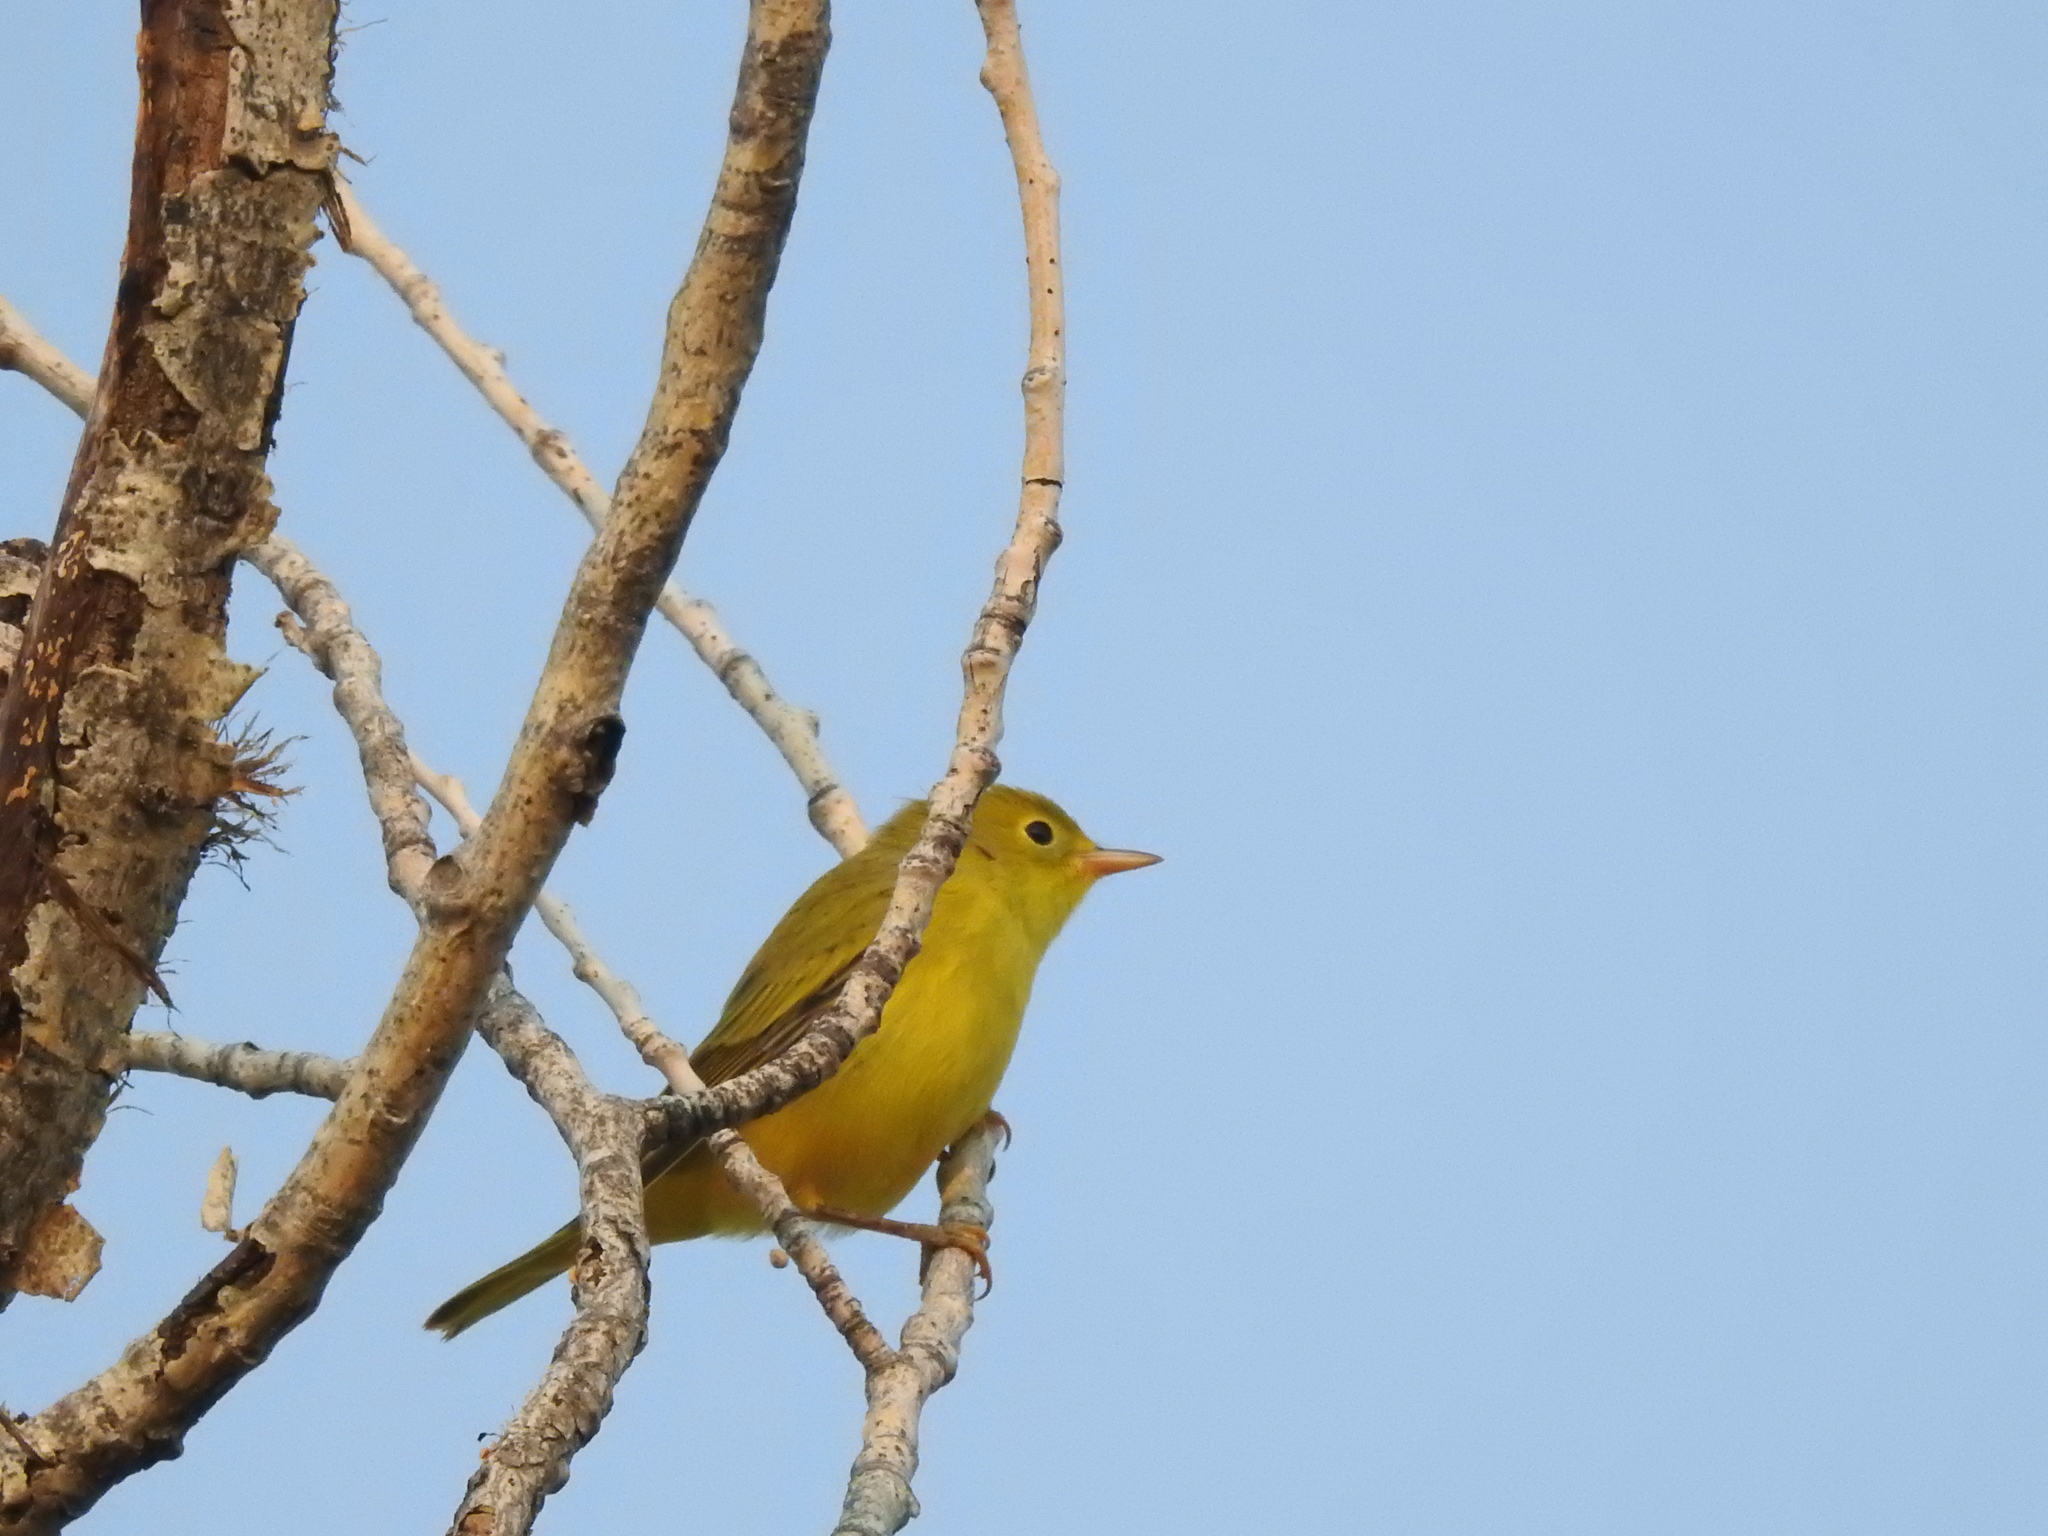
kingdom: Animalia
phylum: Chordata
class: Aves
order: Passeriformes
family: Parulidae
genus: Setophaga
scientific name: Setophaga petechia
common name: Yellow warbler
